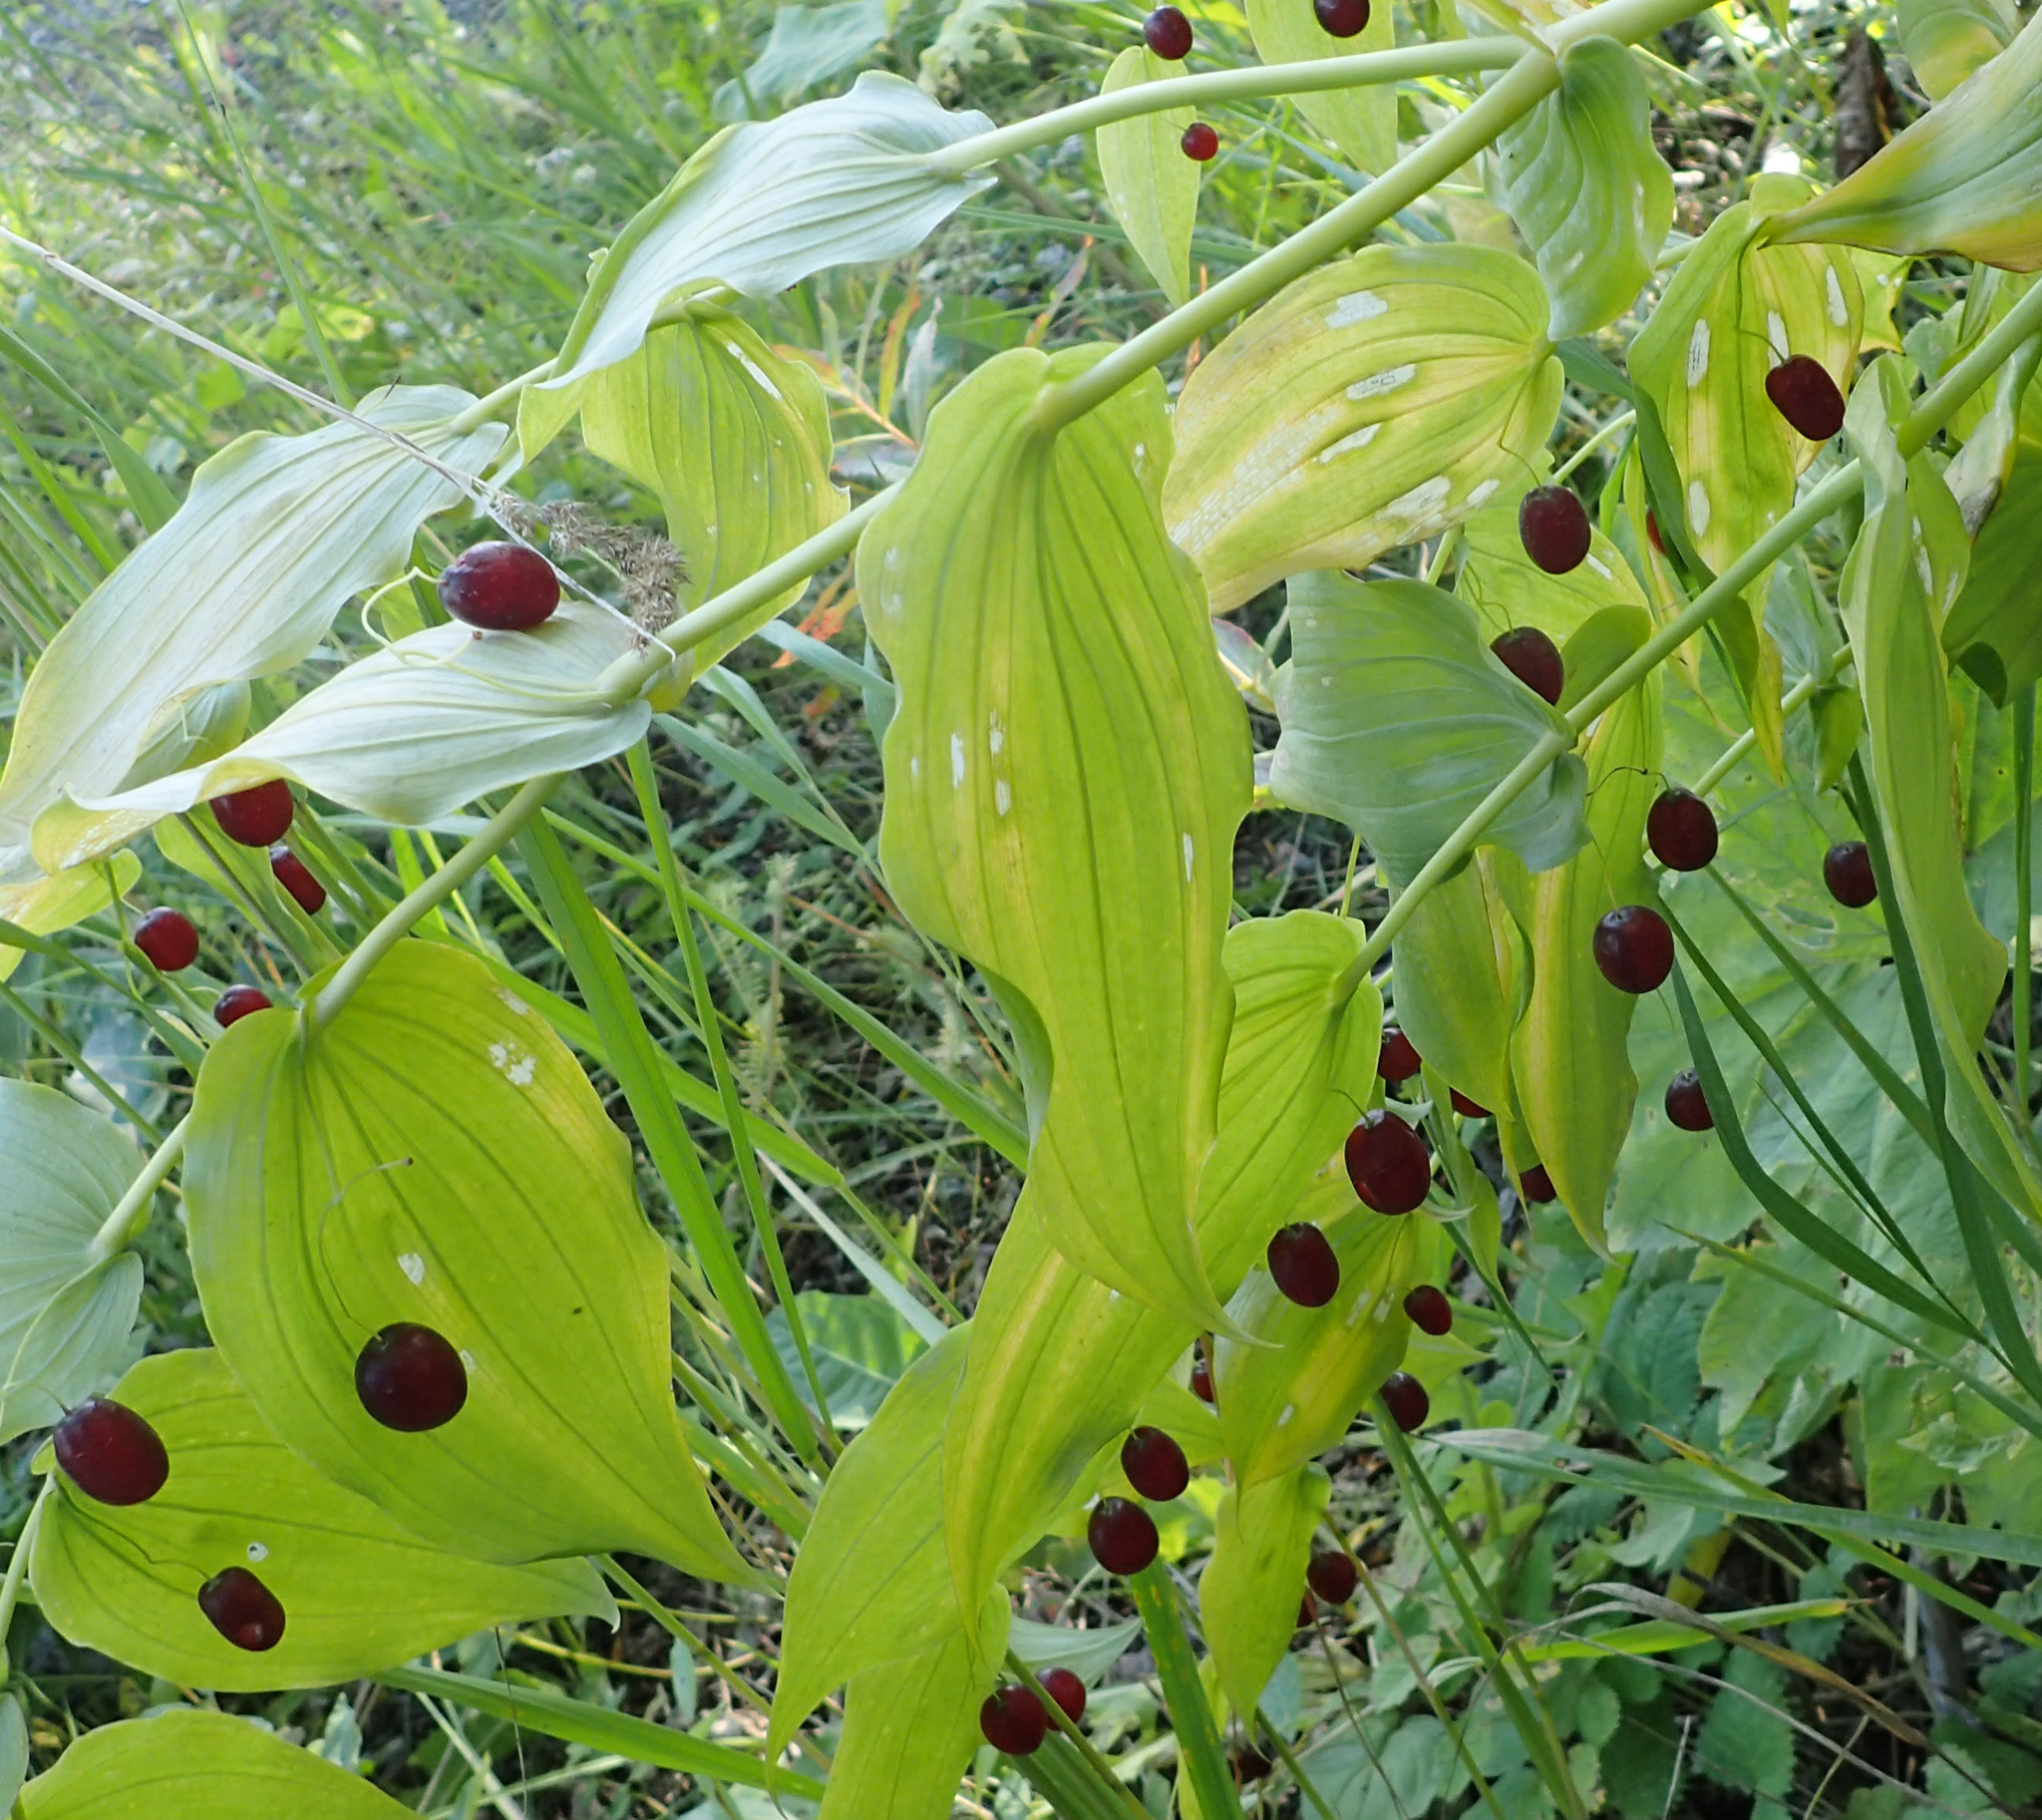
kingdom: Plantae
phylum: Tracheophyta
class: Liliopsida
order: Liliales
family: Liliaceae
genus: Streptopus
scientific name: Streptopus amplexifolius
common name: Clasp twisted stalk
